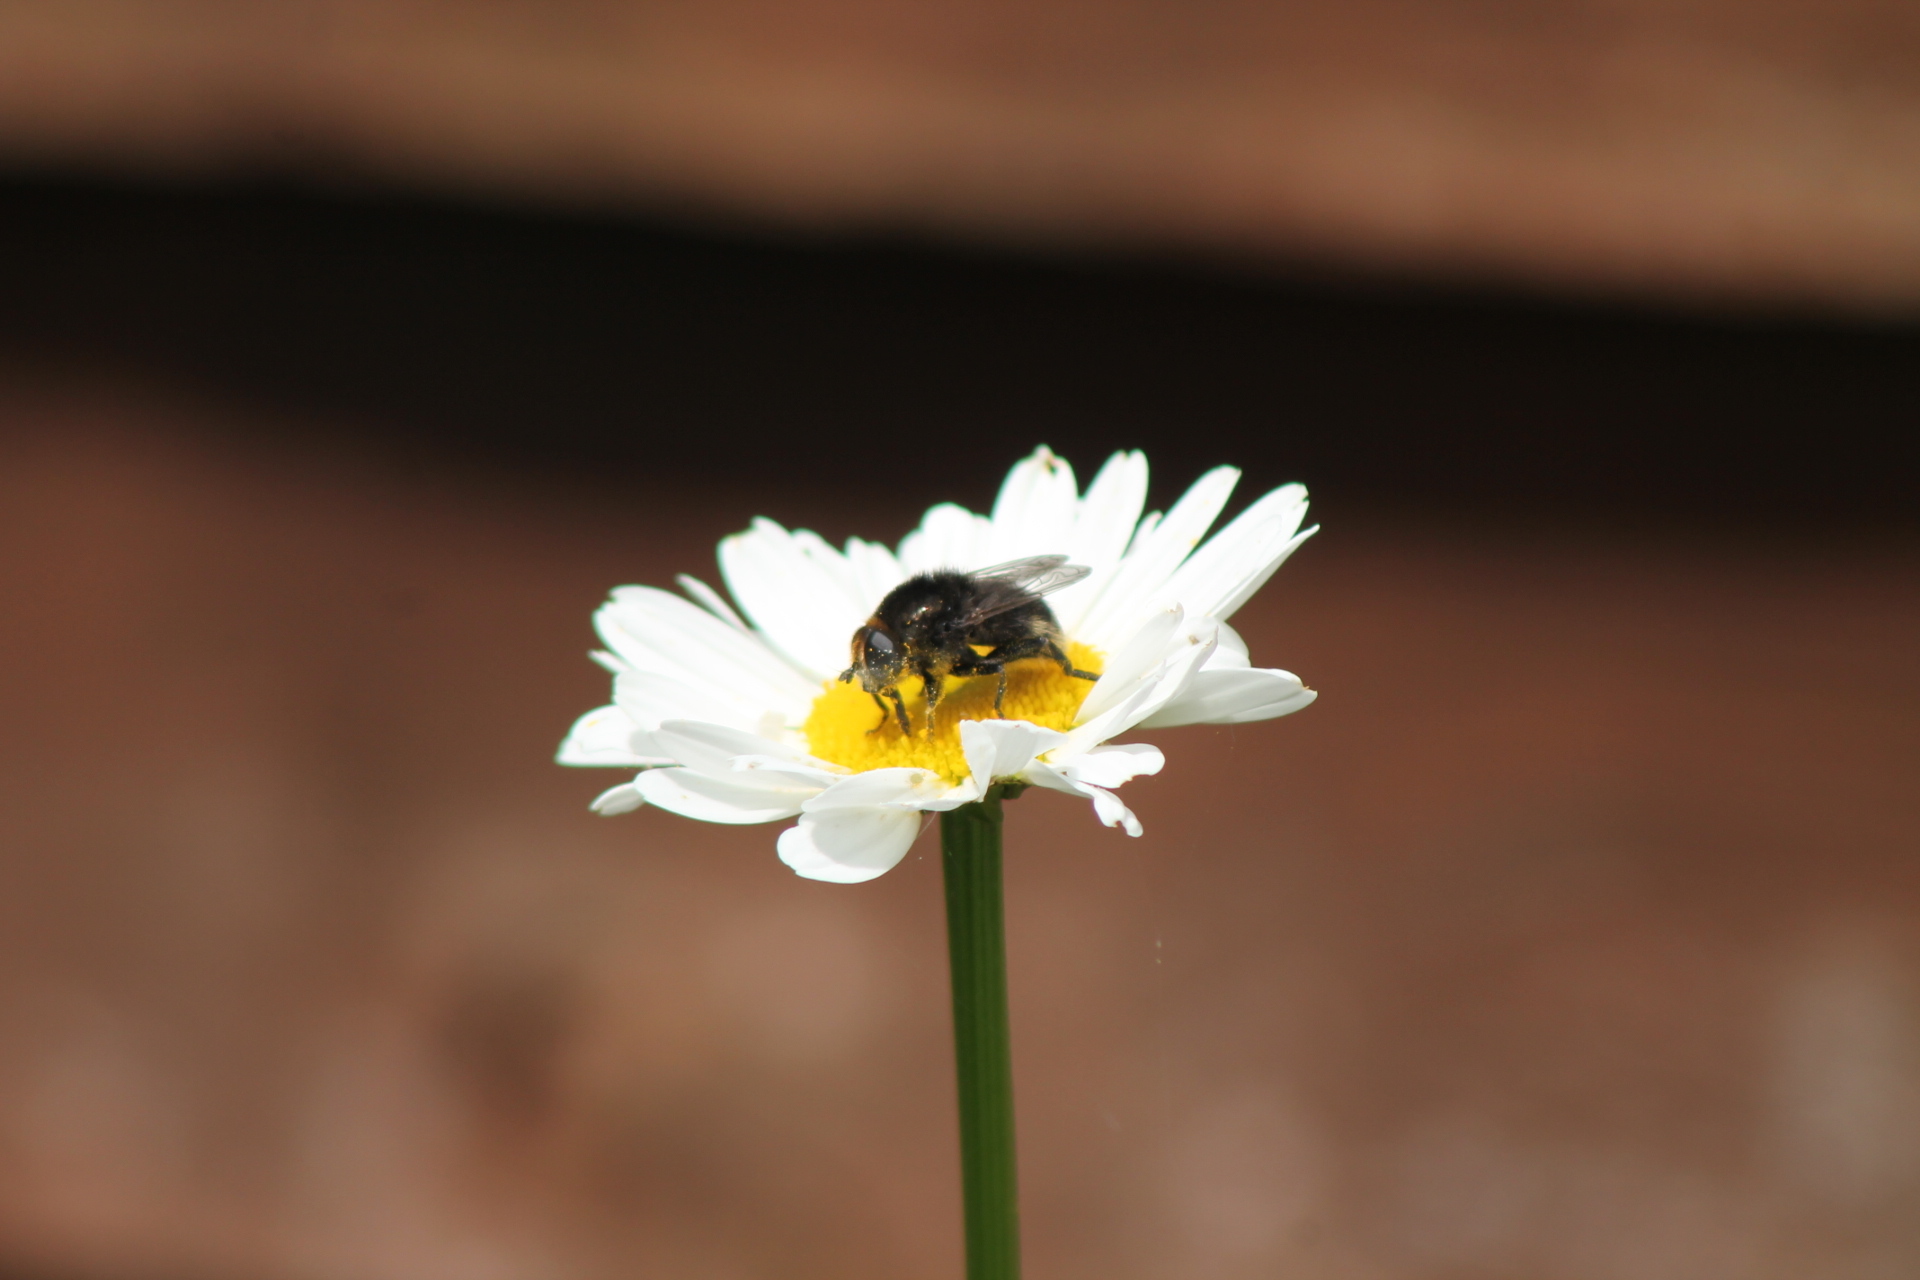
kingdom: Animalia
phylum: Arthropoda
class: Insecta
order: Diptera
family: Syrphidae
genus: Merodon
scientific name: Merodon equestris
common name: Greater bulb-fly
